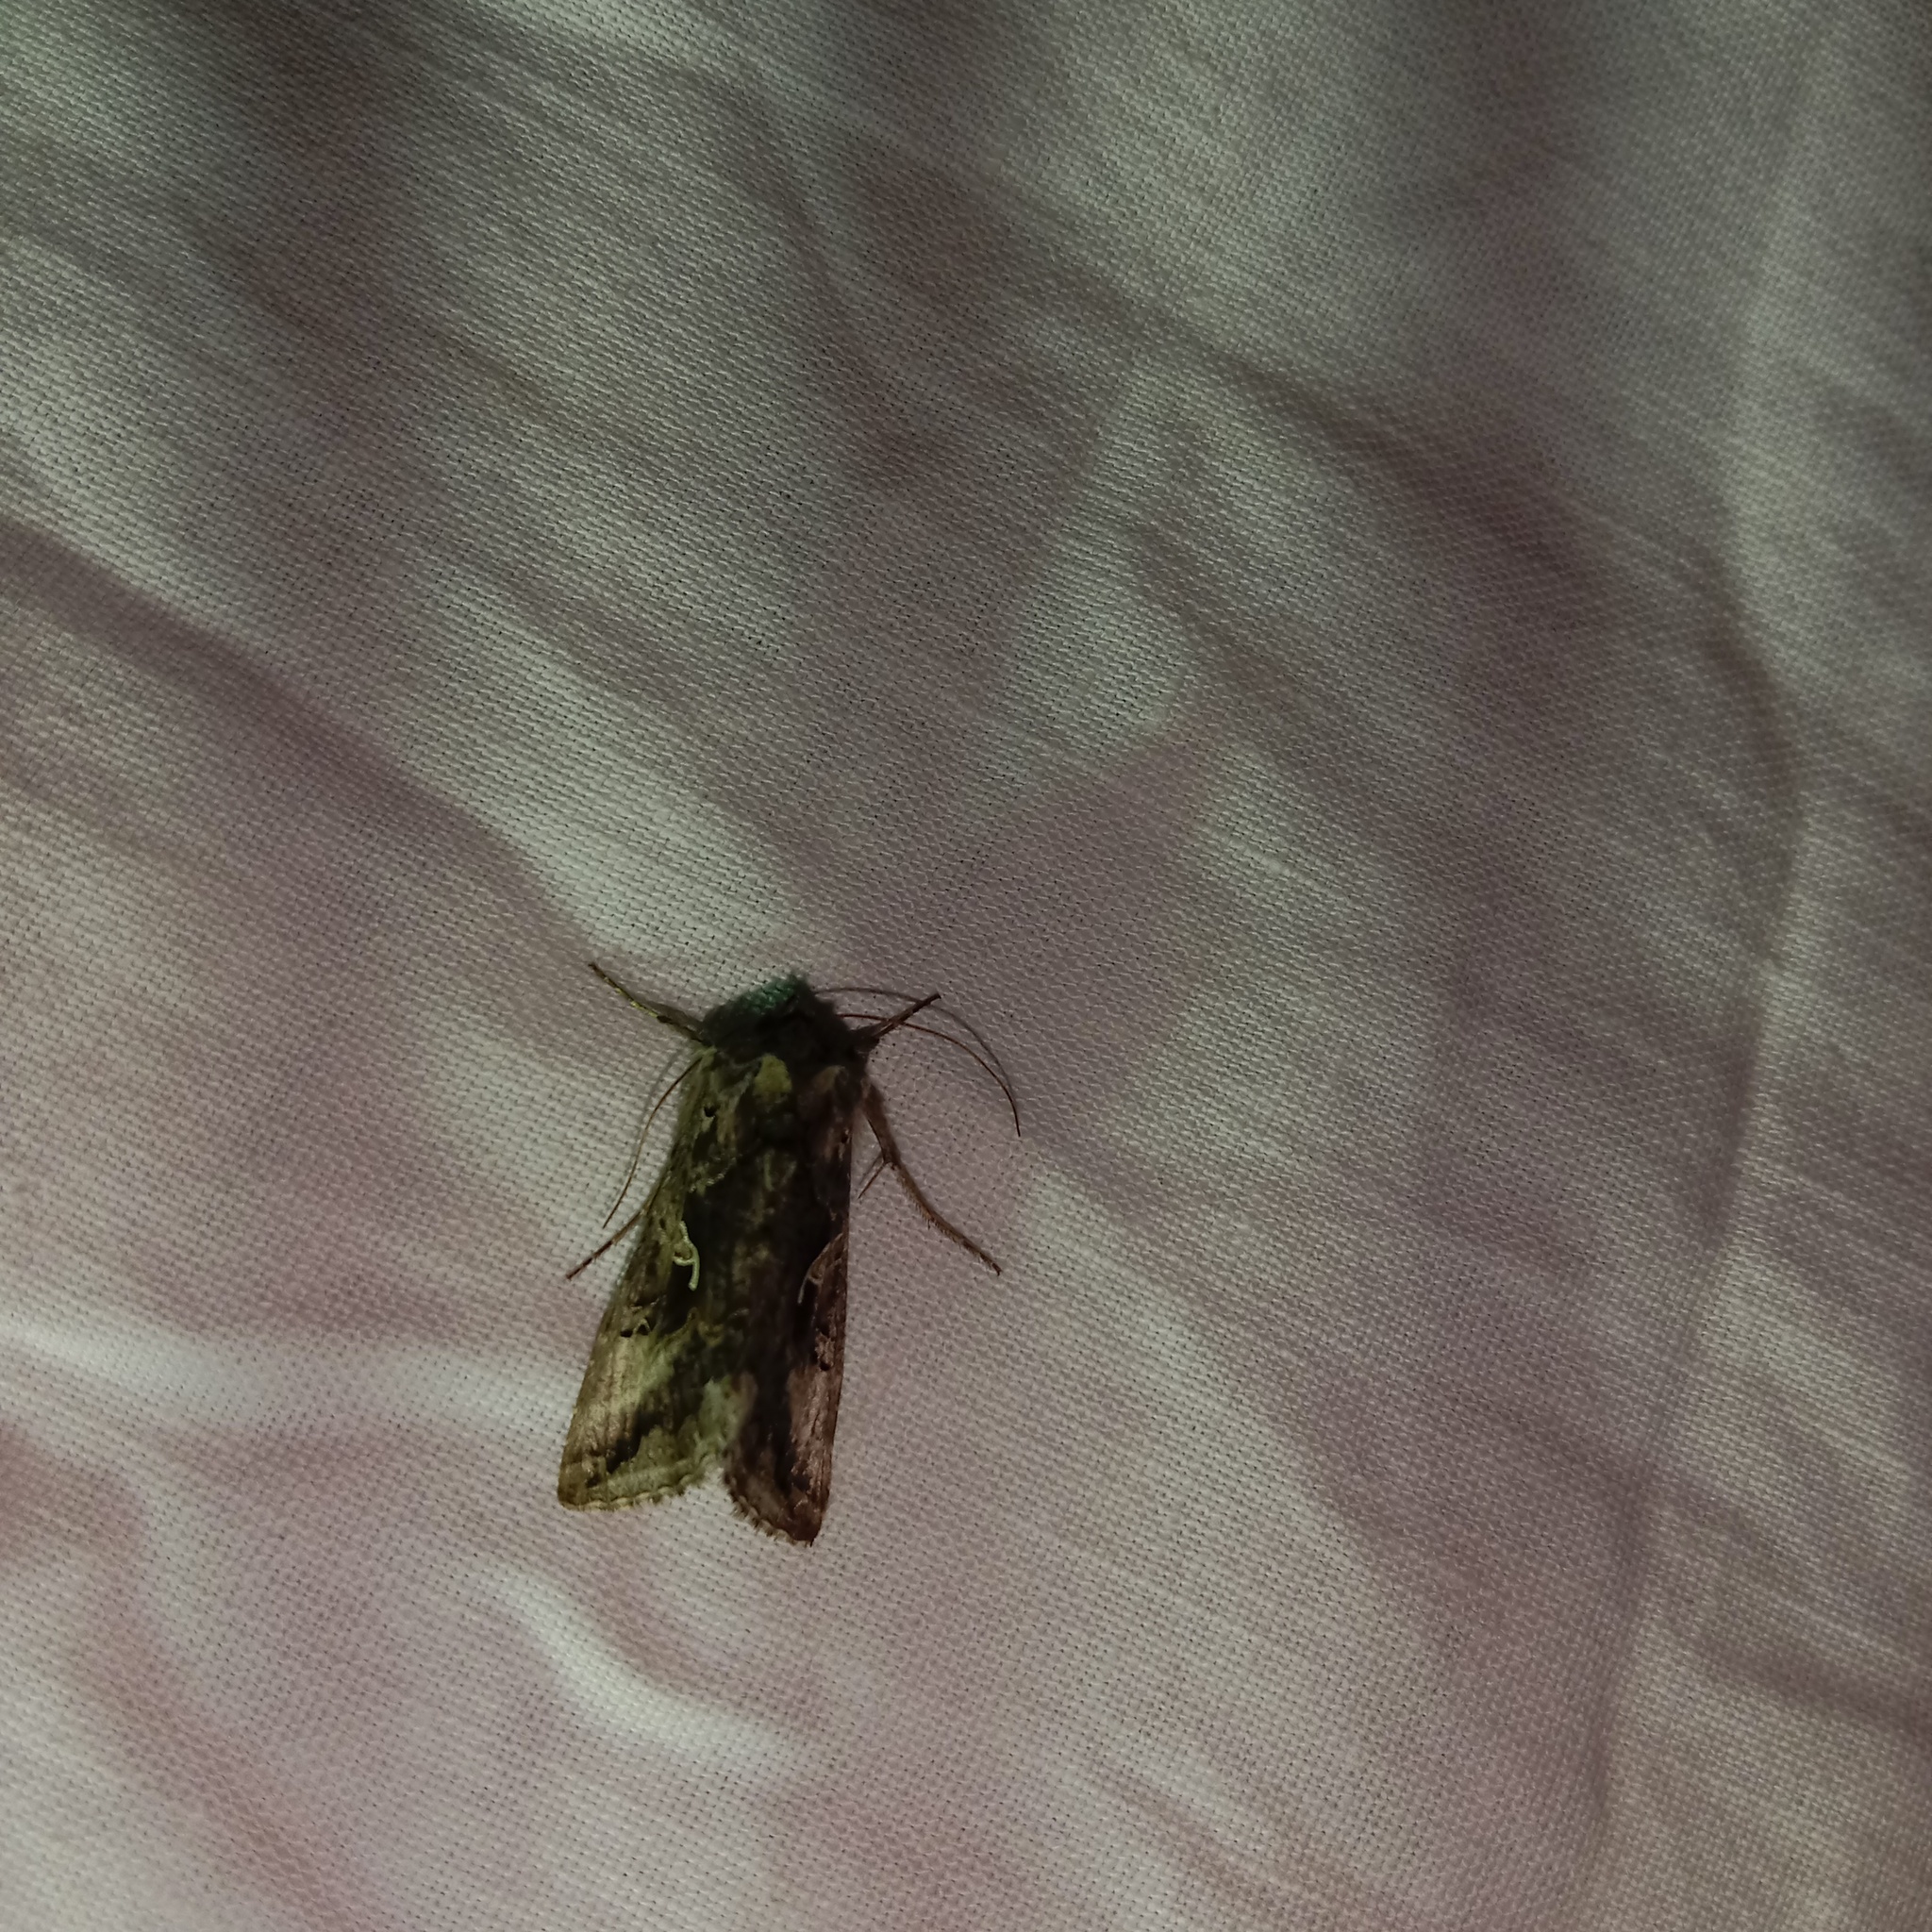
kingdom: Animalia
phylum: Arthropoda
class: Insecta
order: Lepidoptera
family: Noctuidae
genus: Autographa
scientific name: Autographa gamma
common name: Silver y
